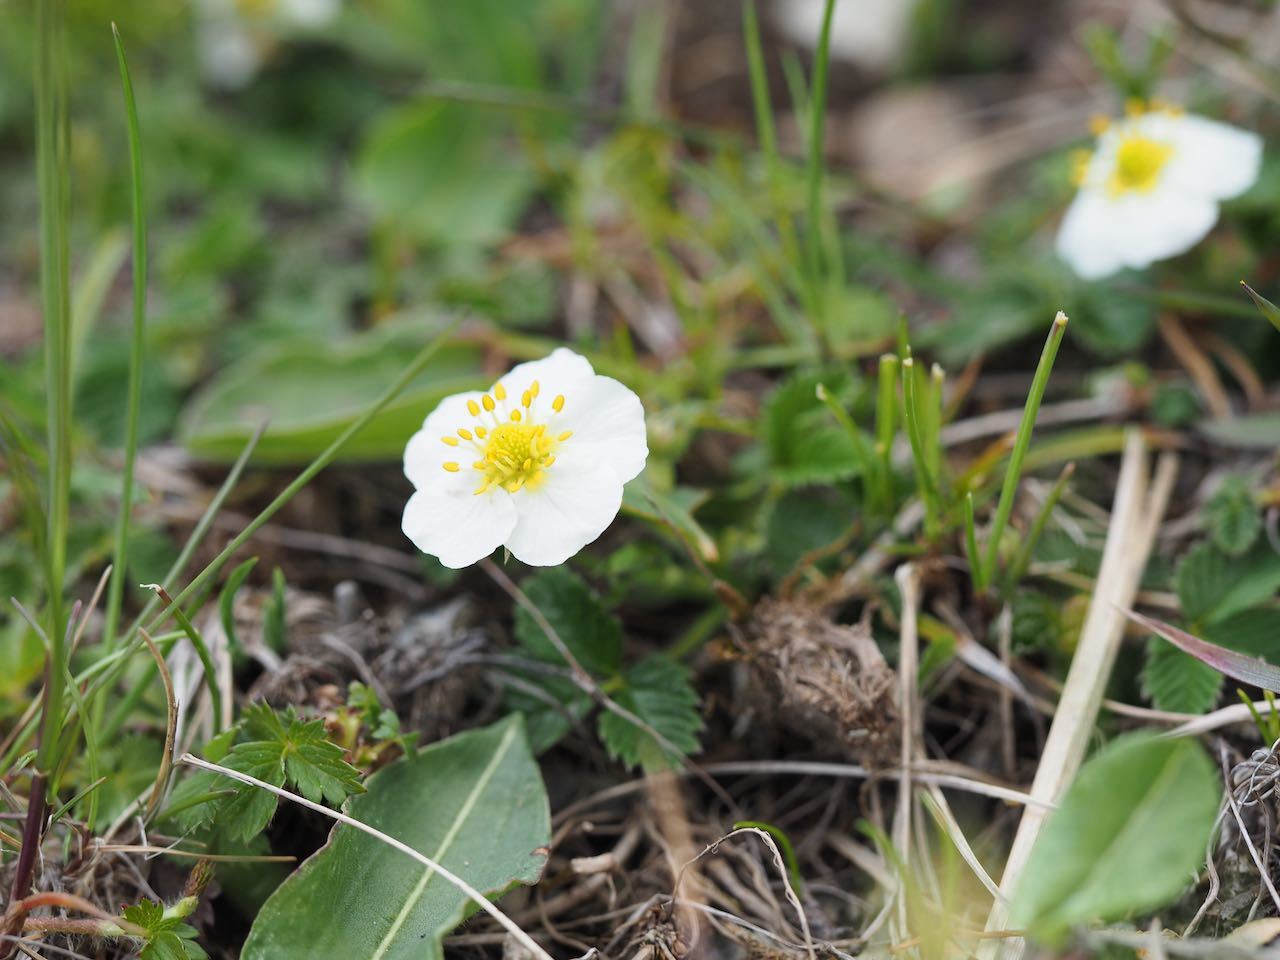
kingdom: Plantae
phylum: Tracheophyta
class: Magnoliopsida
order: Rosales
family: Rosaceae
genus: Fragaria
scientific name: Fragaria nipponica
